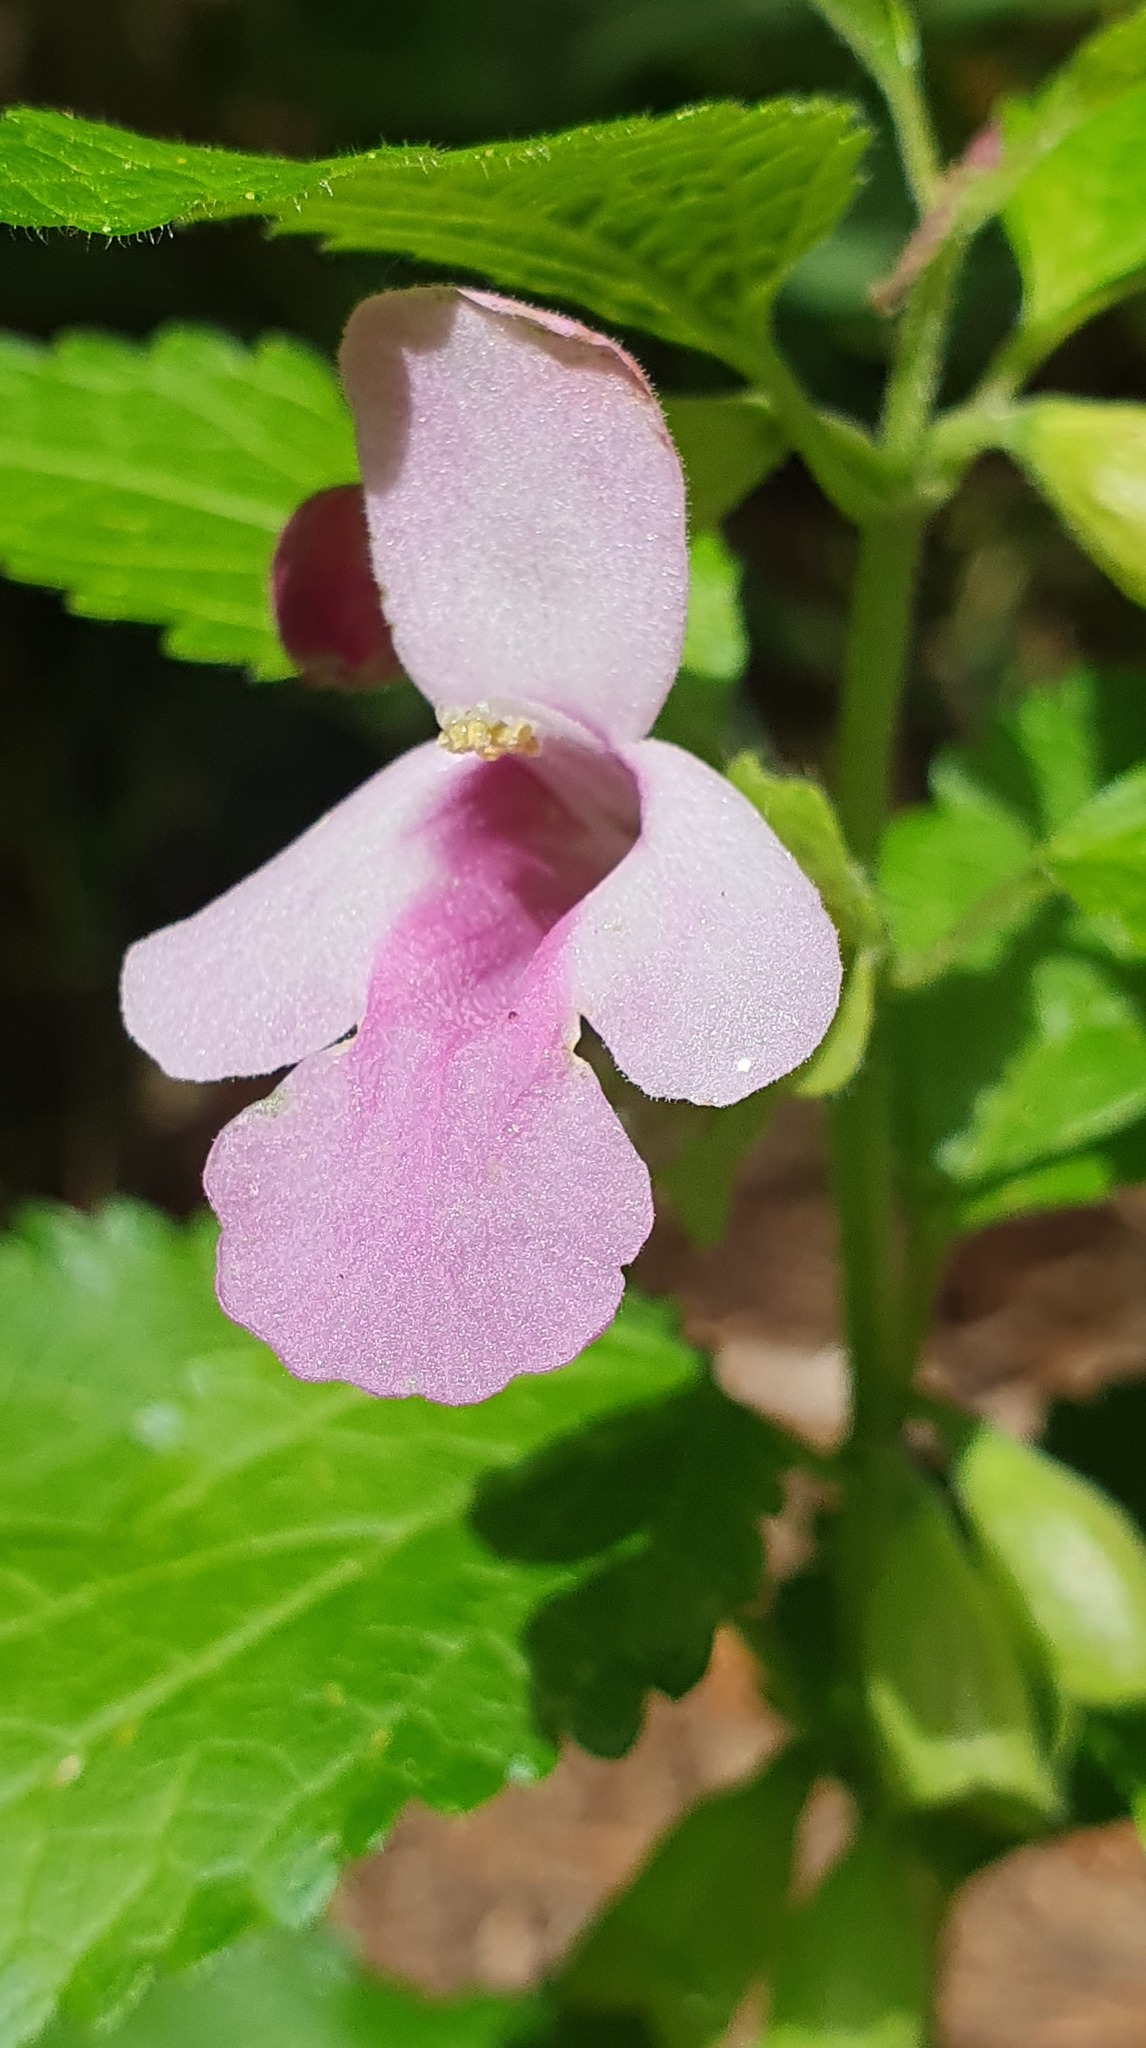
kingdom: Plantae
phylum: Tracheophyta
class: Magnoliopsida
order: Lamiales
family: Lamiaceae
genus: Melittis
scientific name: Melittis melissophyllum
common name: Bastard balm
